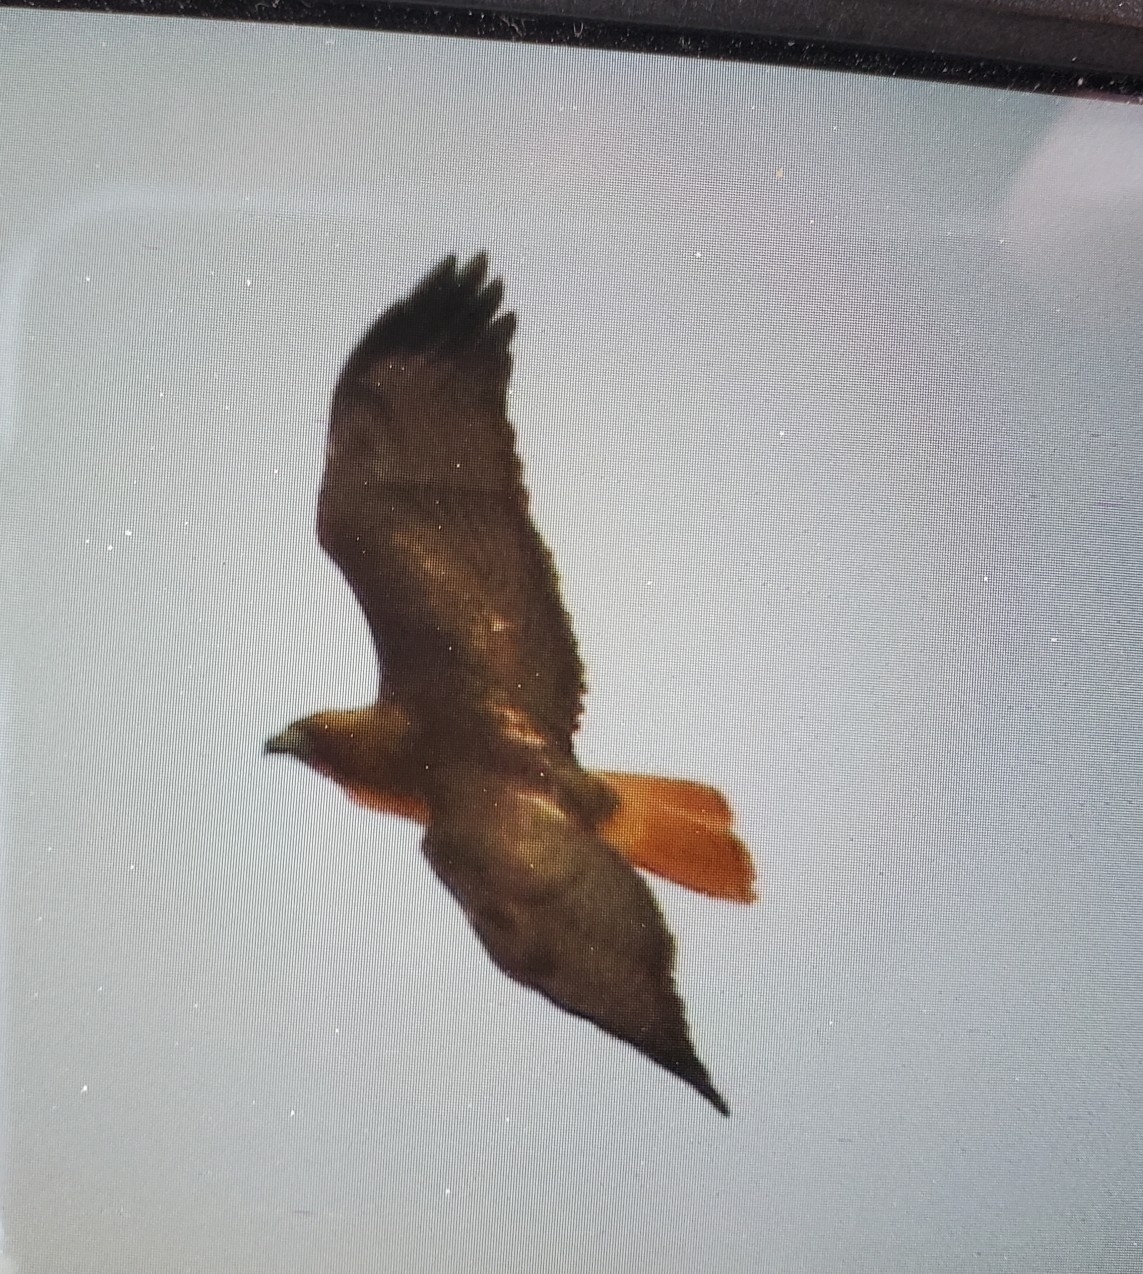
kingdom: Animalia
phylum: Chordata
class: Aves
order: Accipitriformes
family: Accipitridae
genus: Buteo
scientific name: Buteo jamaicensis
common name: Red-tailed hawk
